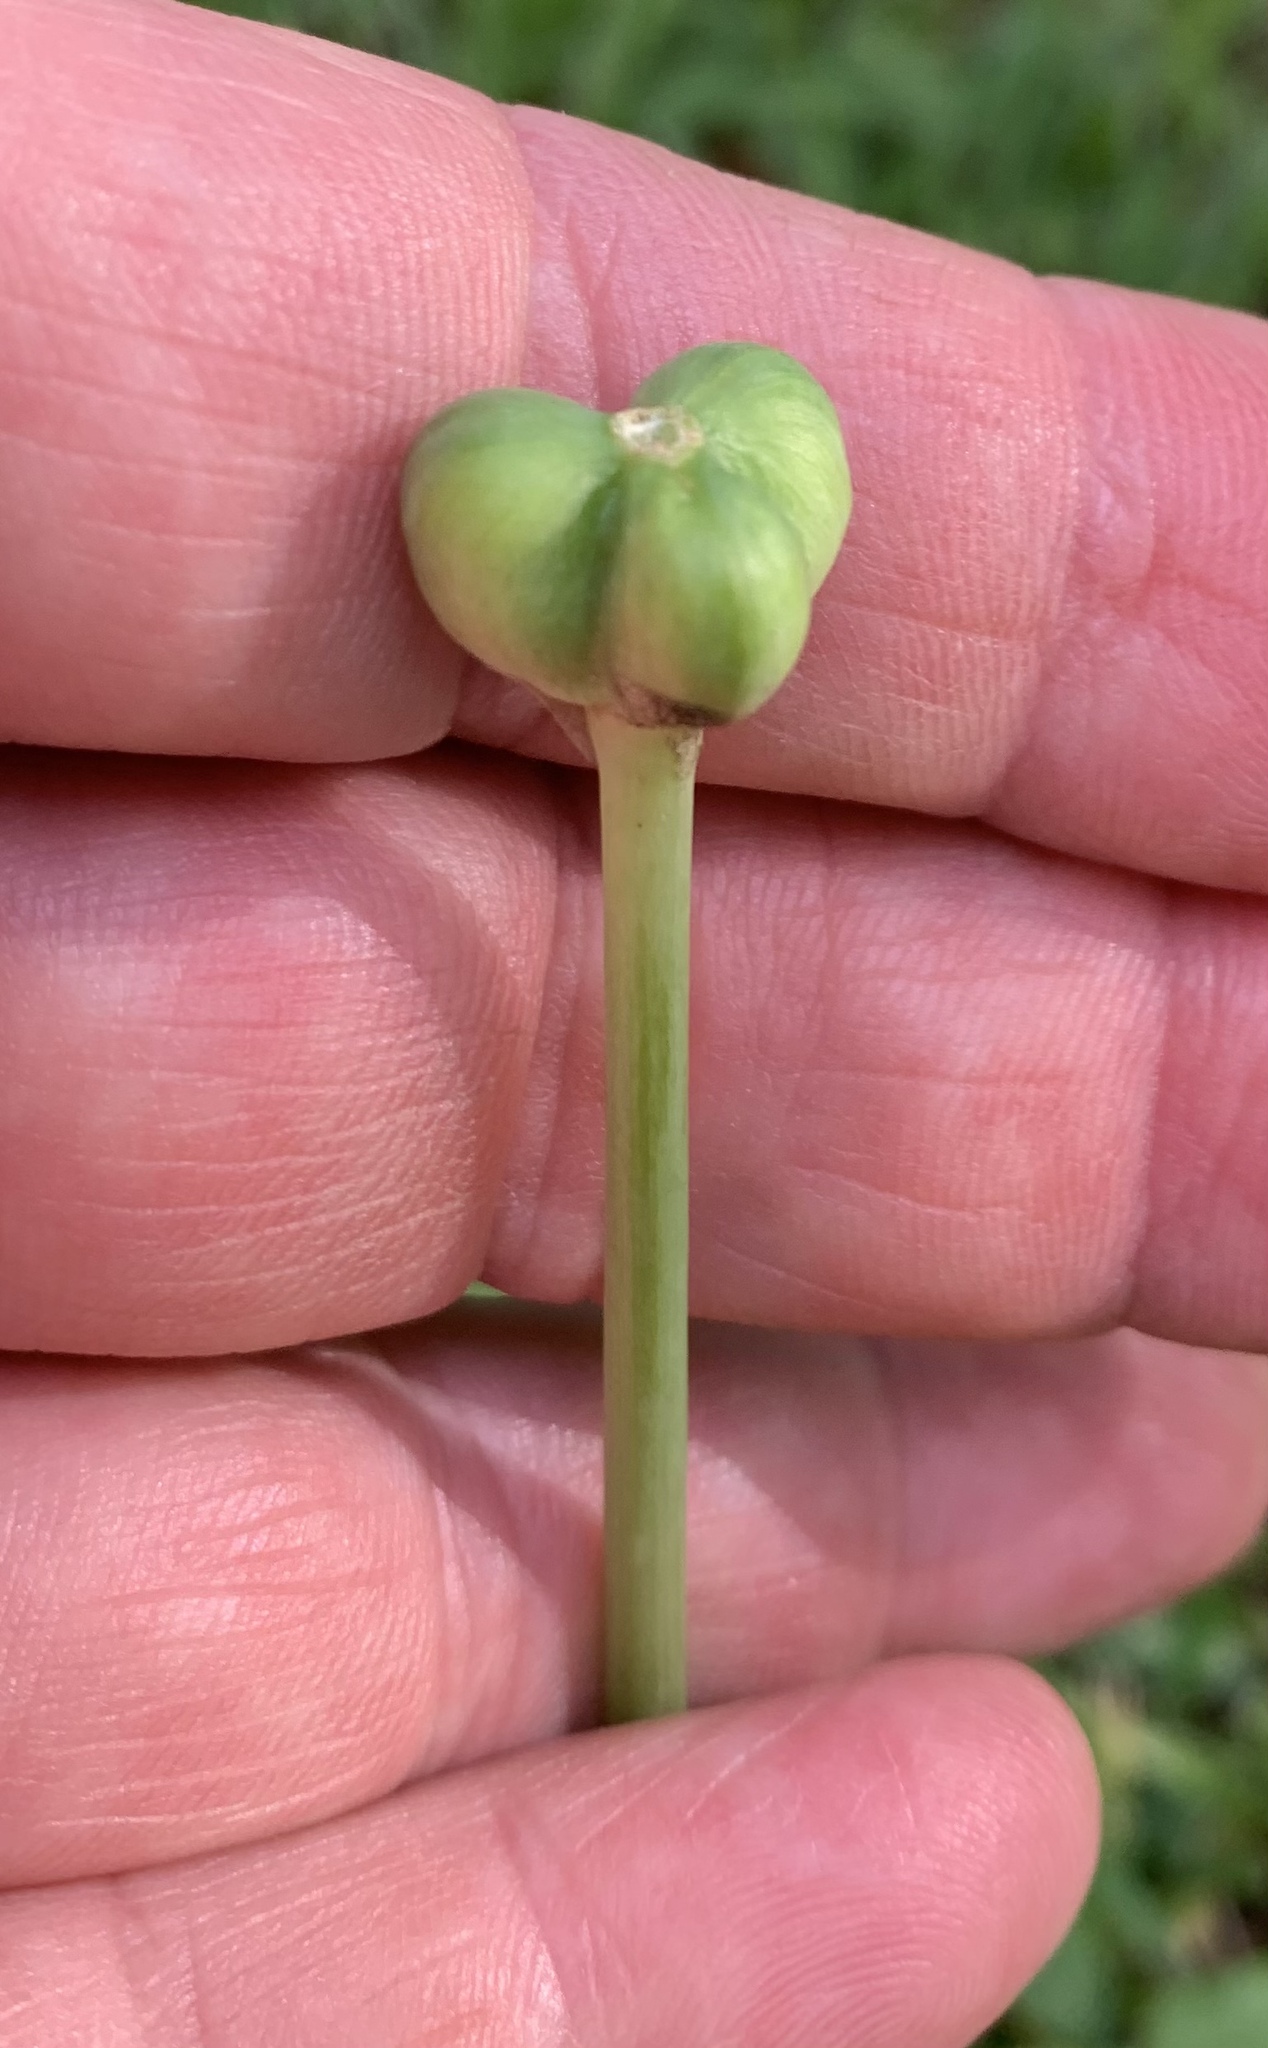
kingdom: Plantae
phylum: Tracheophyta
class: Liliopsida
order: Asparagales
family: Amaryllidaceae
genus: Zephyranthes
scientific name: Zephyranthes chlorosolen
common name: Evening rain-lily
